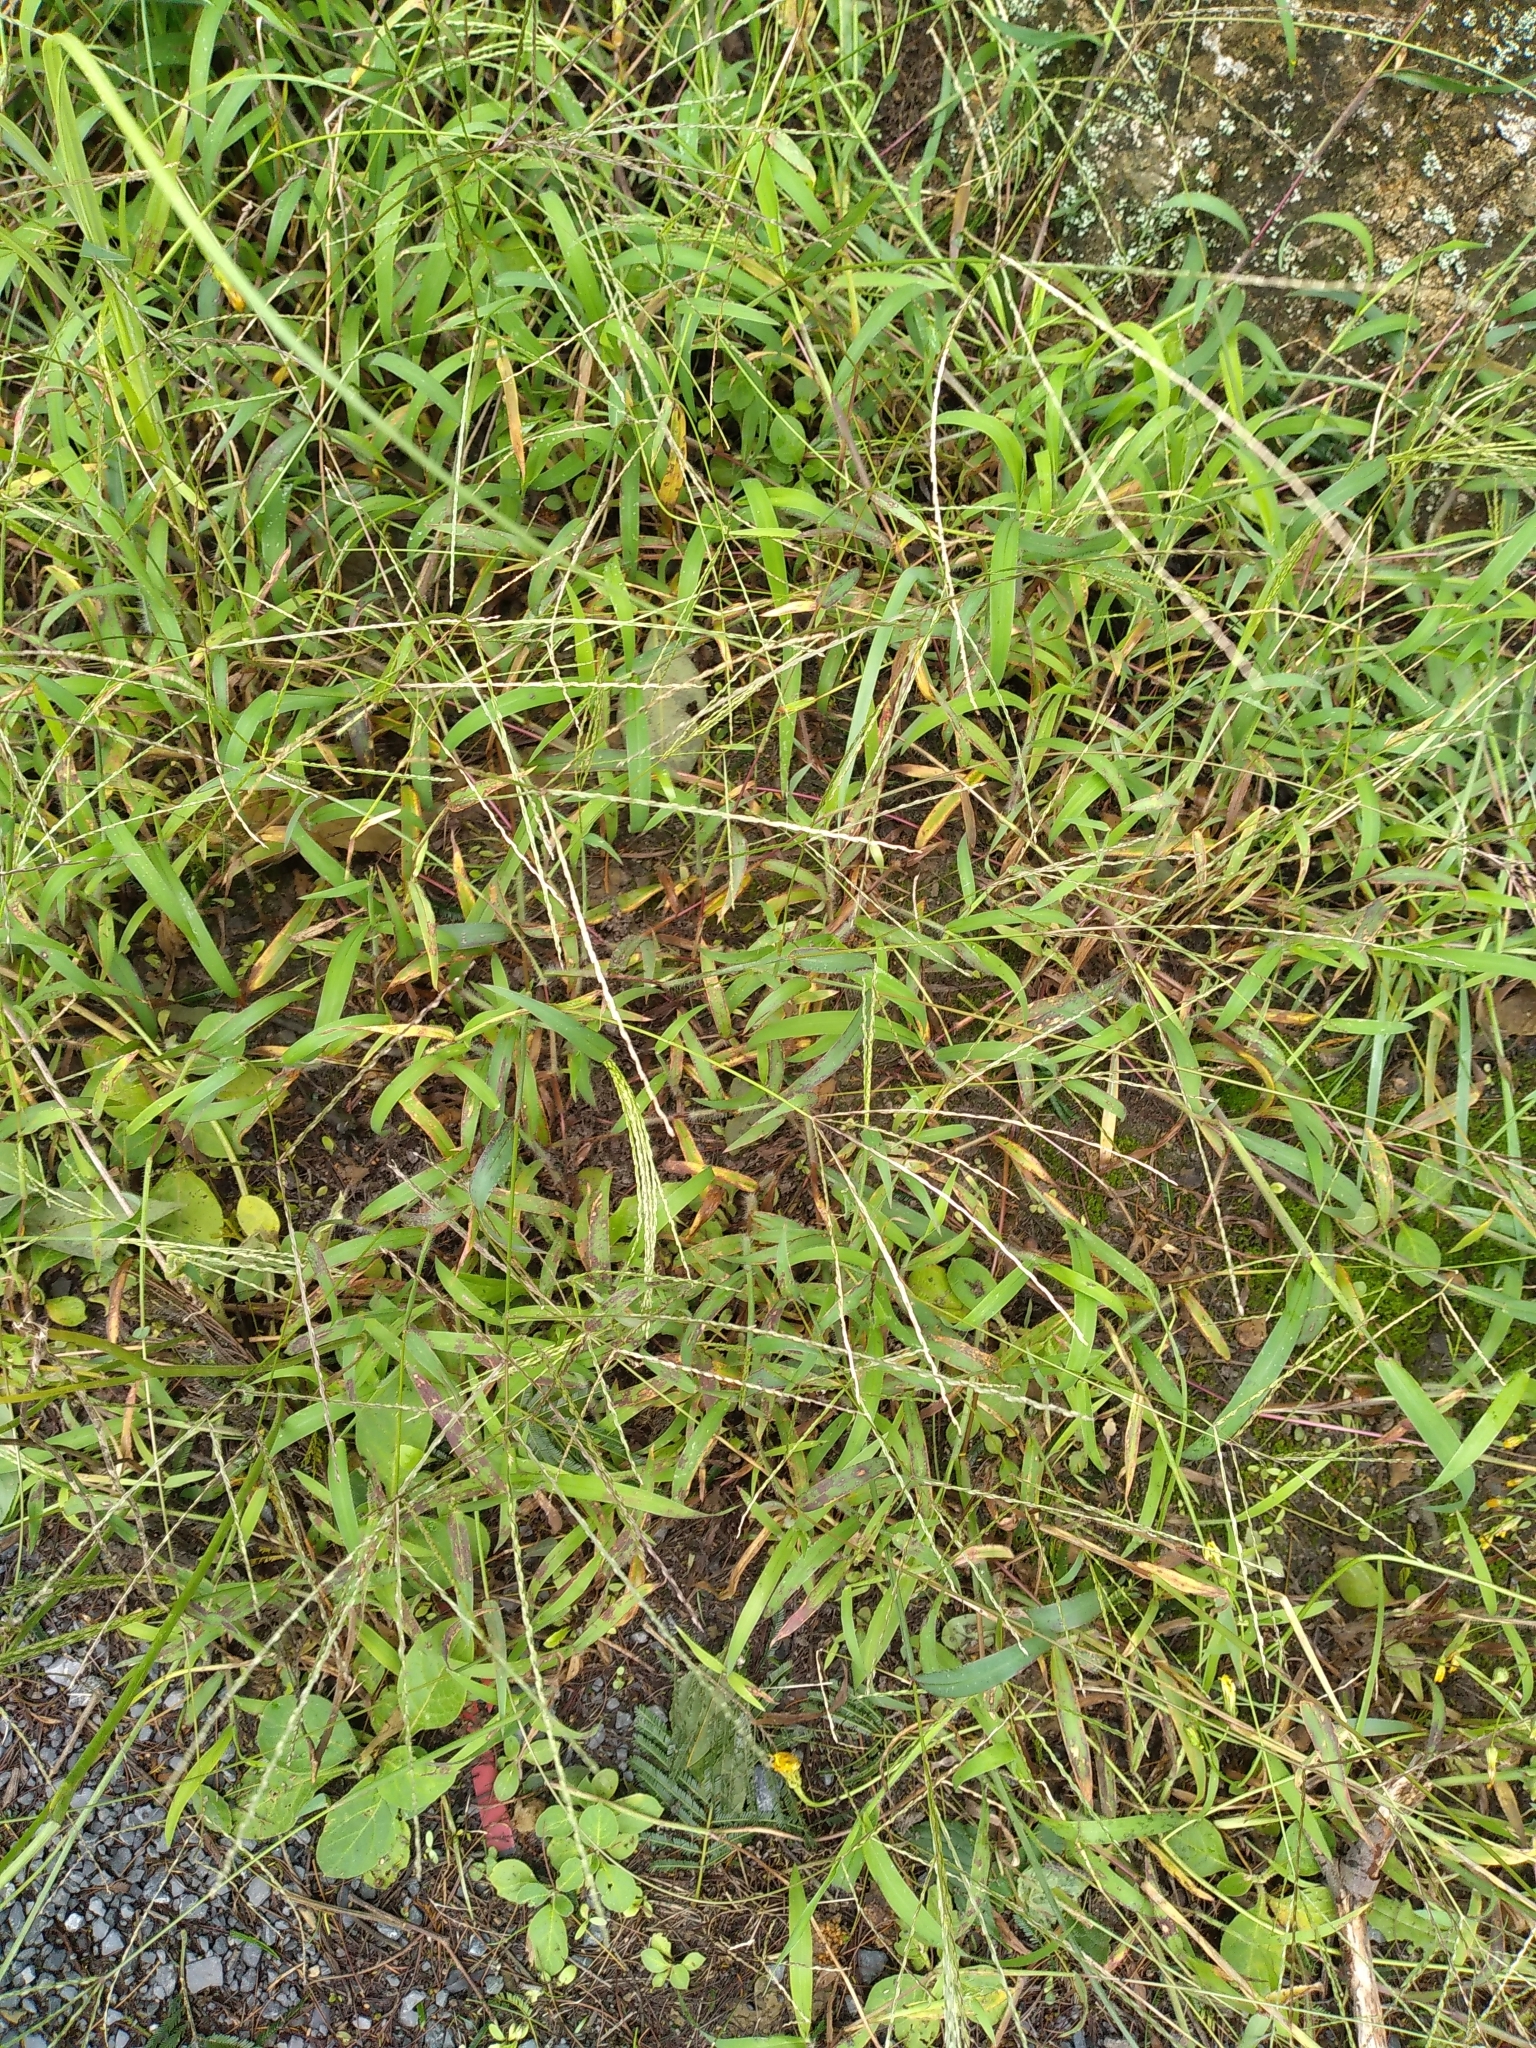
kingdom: Plantae
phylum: Tracheophyta
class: Liliopsida
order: Poales
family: Poaceae
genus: Digitaria
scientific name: Digitaria sanguinalis
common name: Hairy crabgrass
